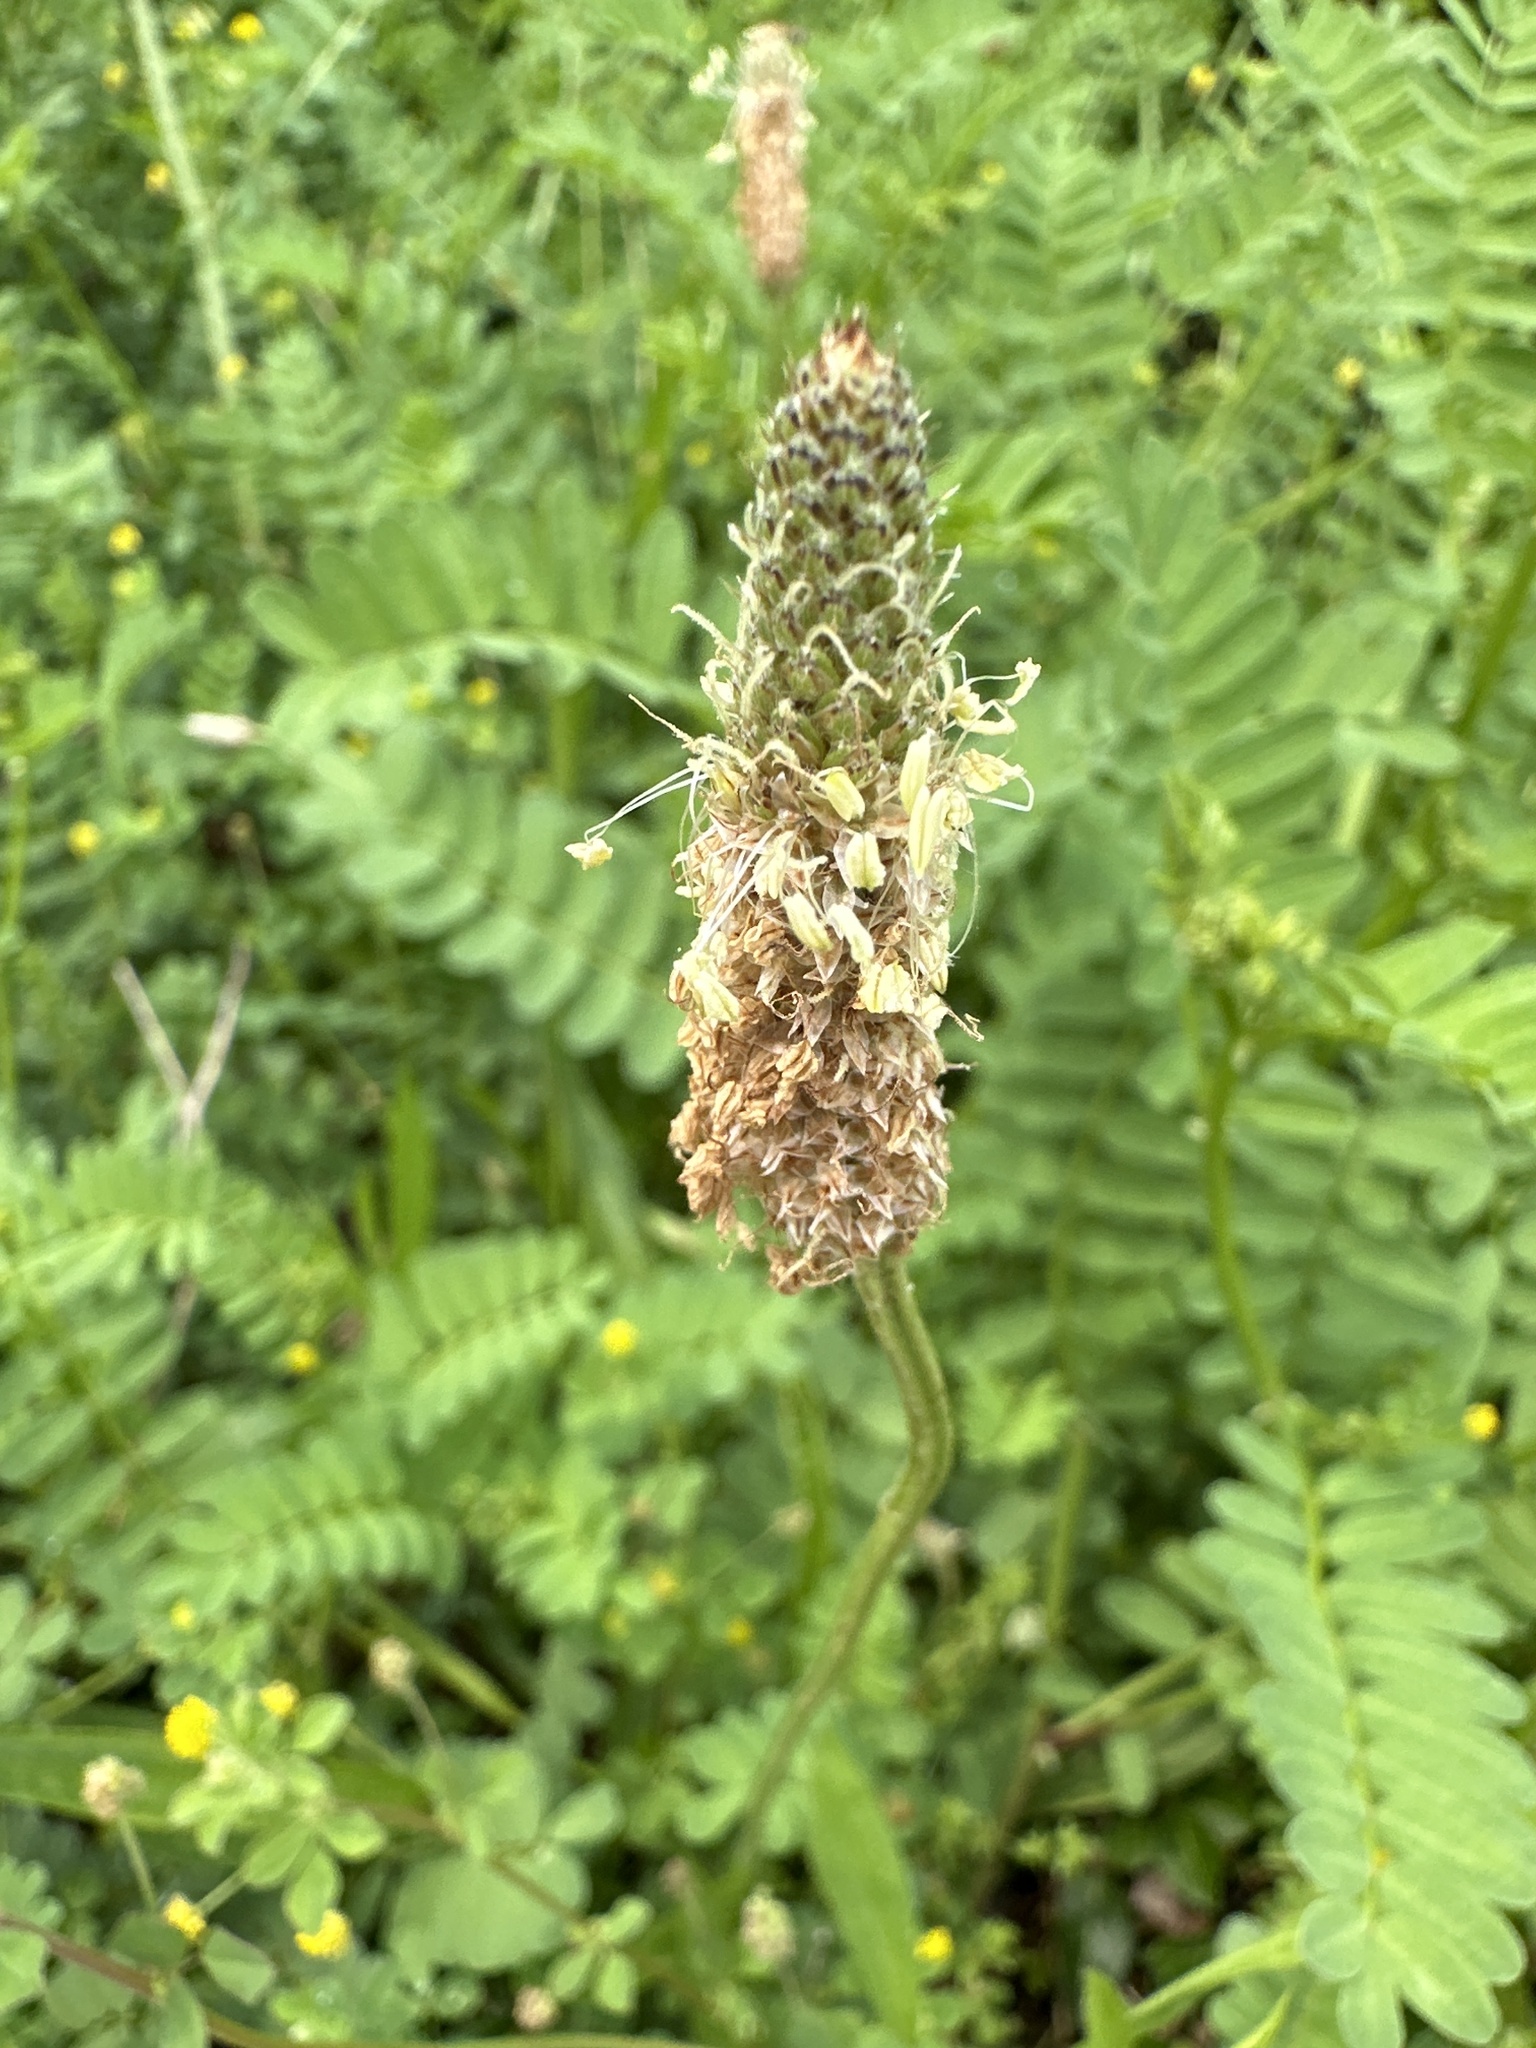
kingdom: Plantae
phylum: Tracheophyta
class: Magnoliopsida
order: Lamiales
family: Plantaginaceae
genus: Plantago
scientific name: Plantago lanceolata
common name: Ribwort plantain
